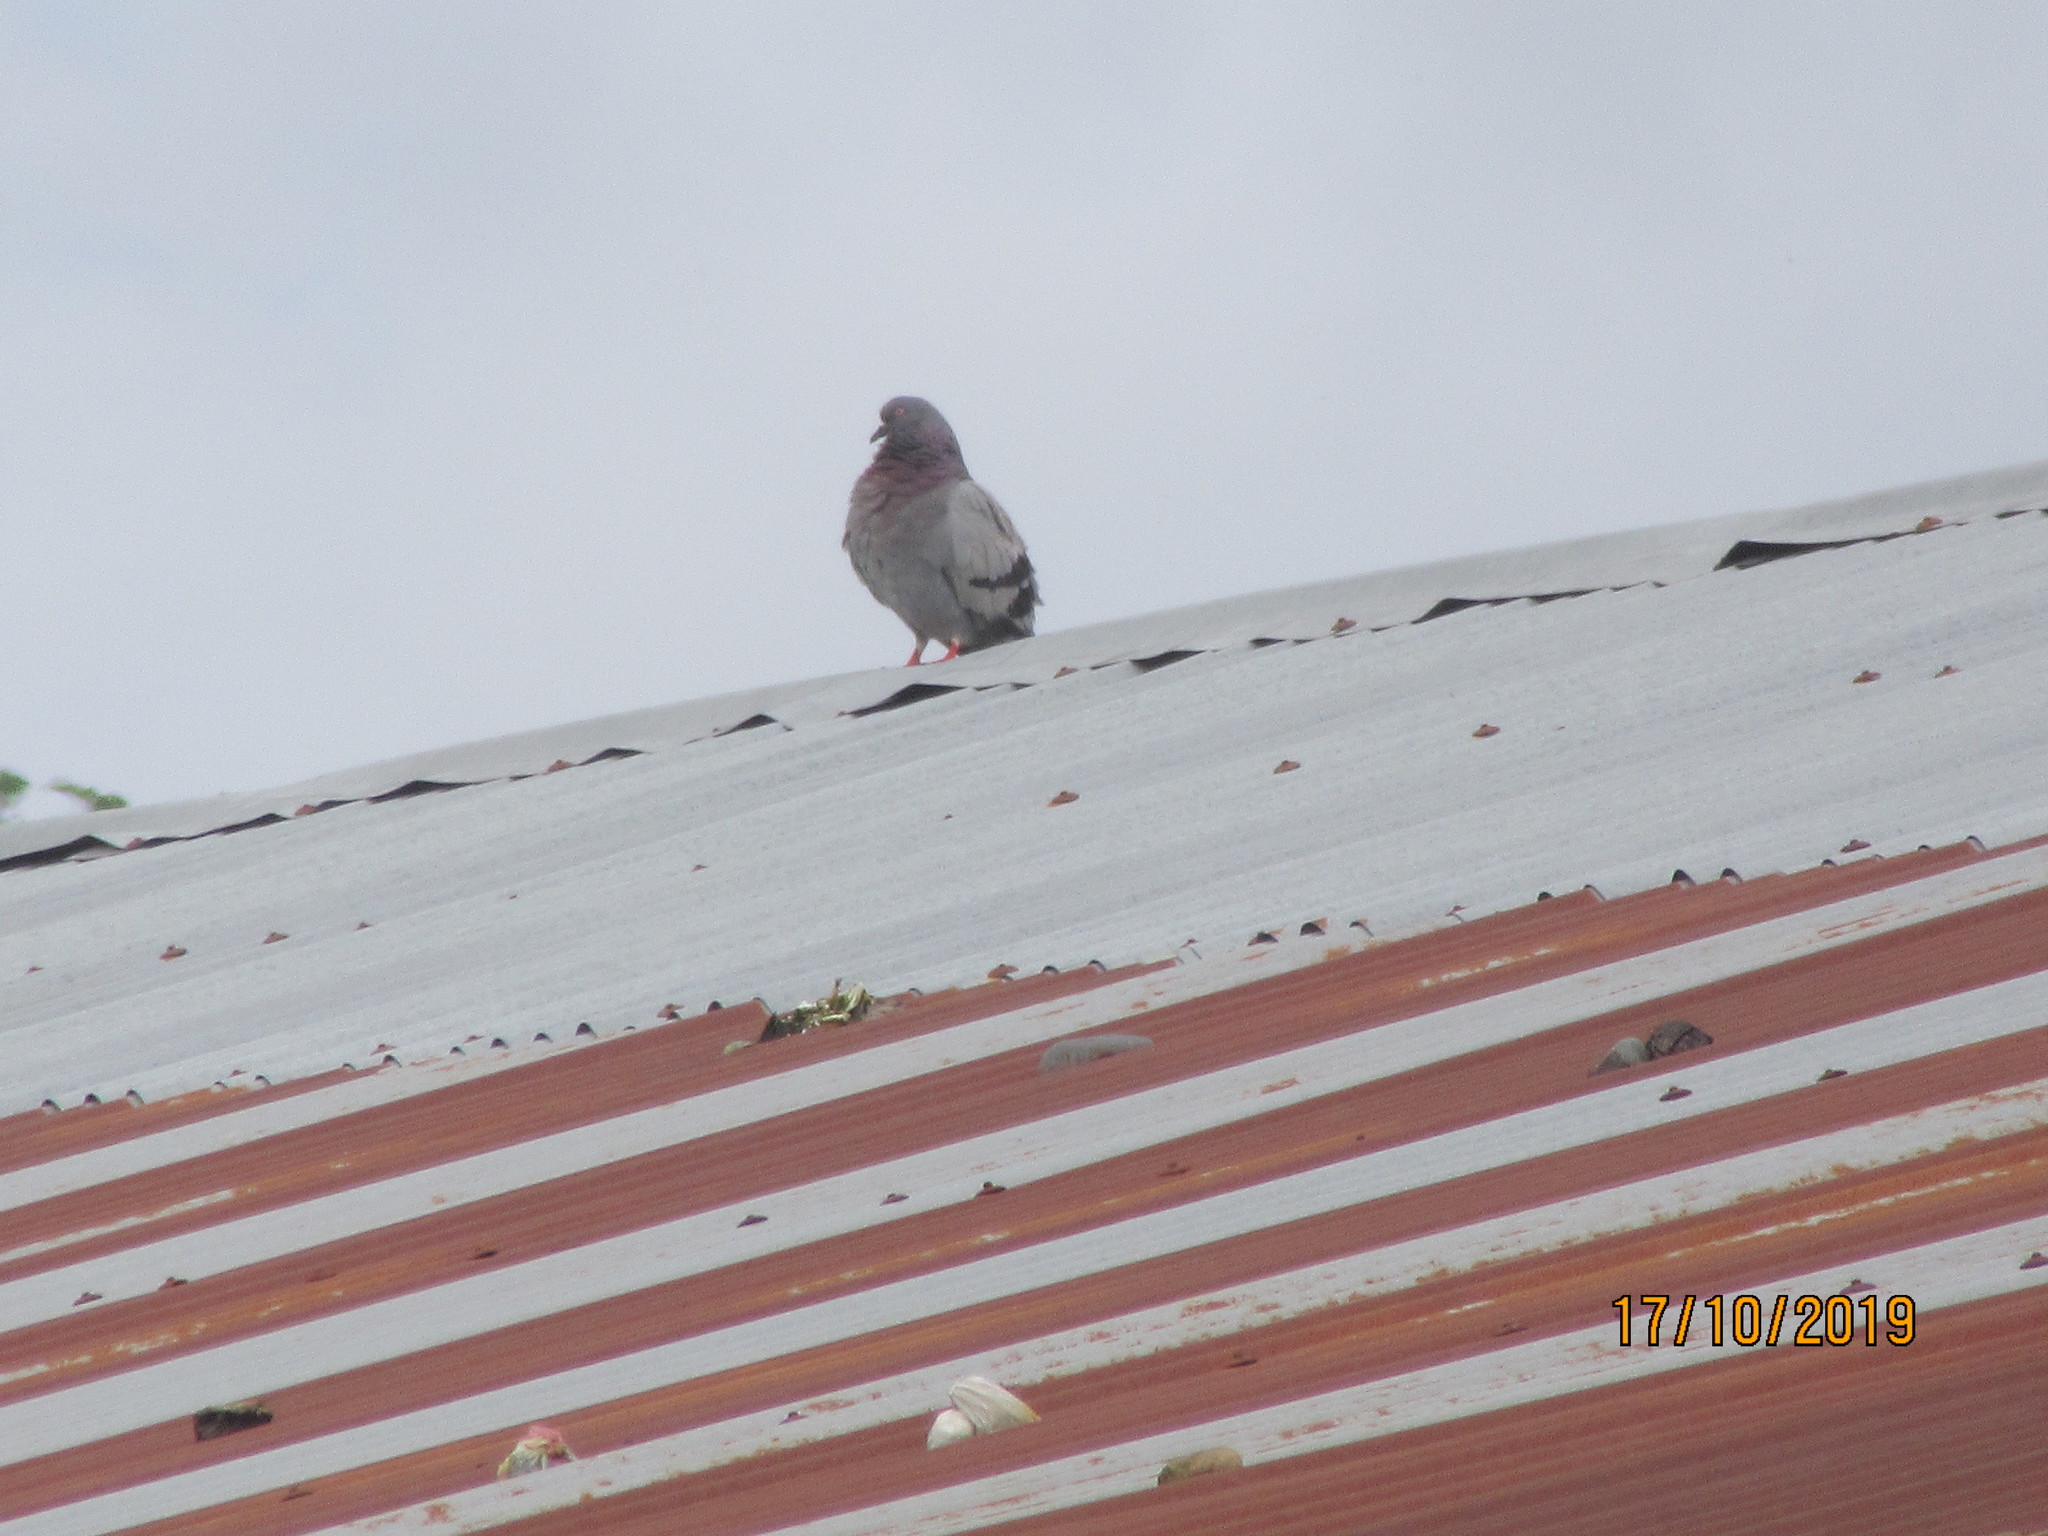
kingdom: Animalia
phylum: Chordata
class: Aves
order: Columbiformes
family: Columbidae
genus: Columba
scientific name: Columba livia
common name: Rock pigeon
